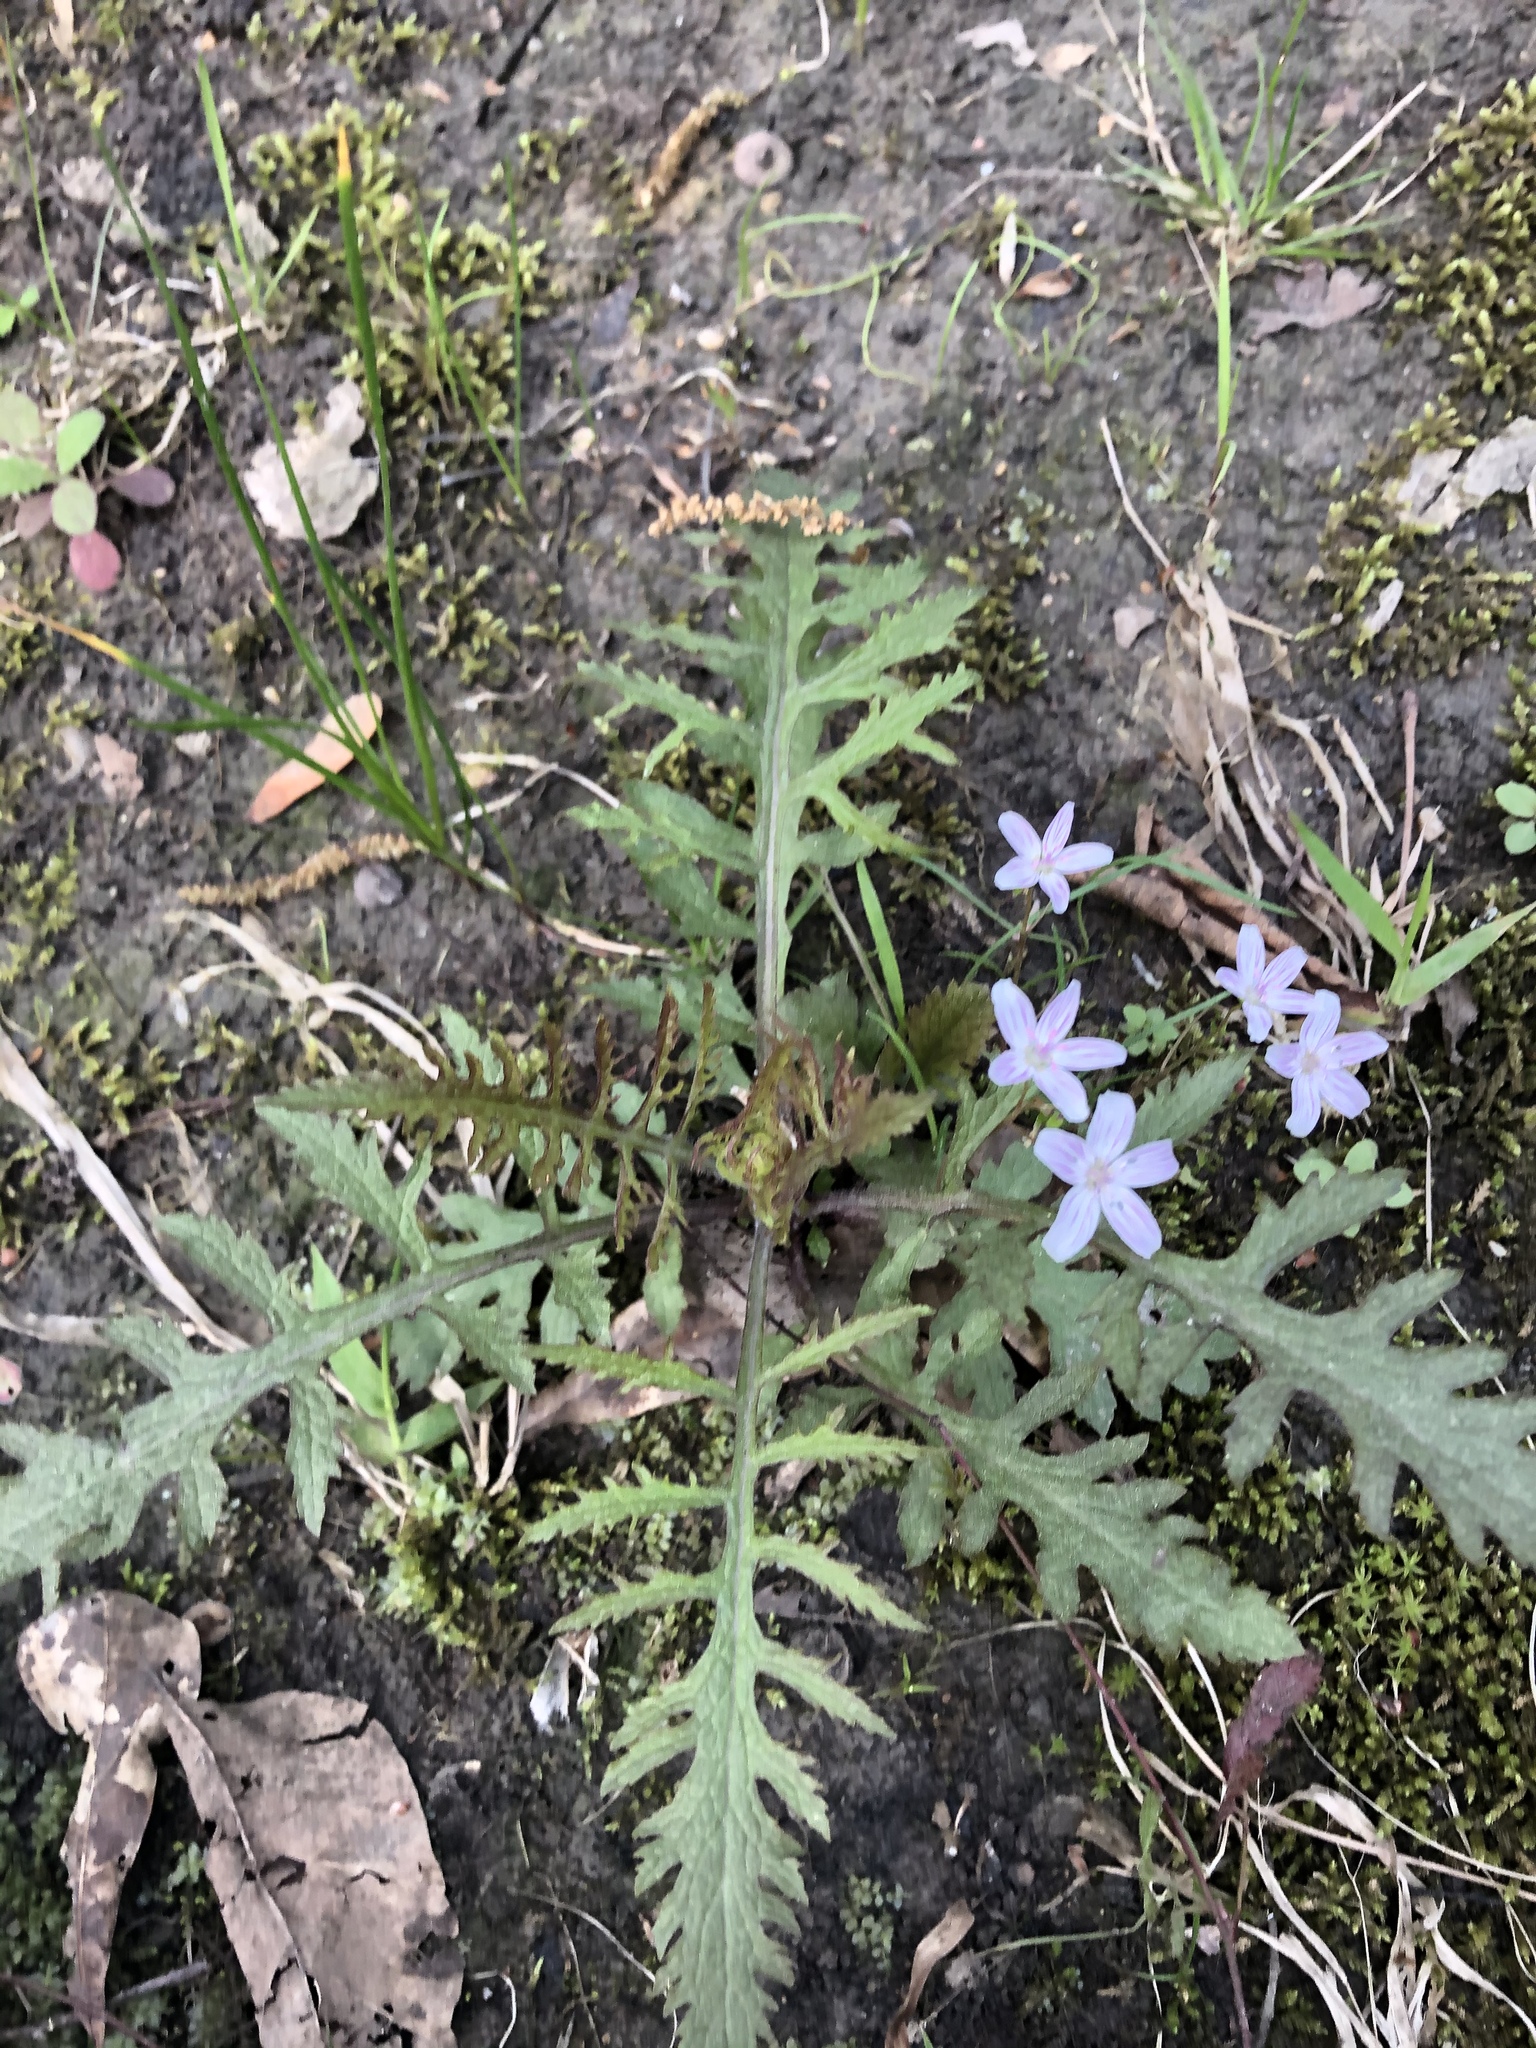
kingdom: Plantae
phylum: Tracheophyta
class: Magnoliopsida
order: Lamiales
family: Orobanchaceae
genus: Dasistoma
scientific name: Dasistoma macrophyllum
